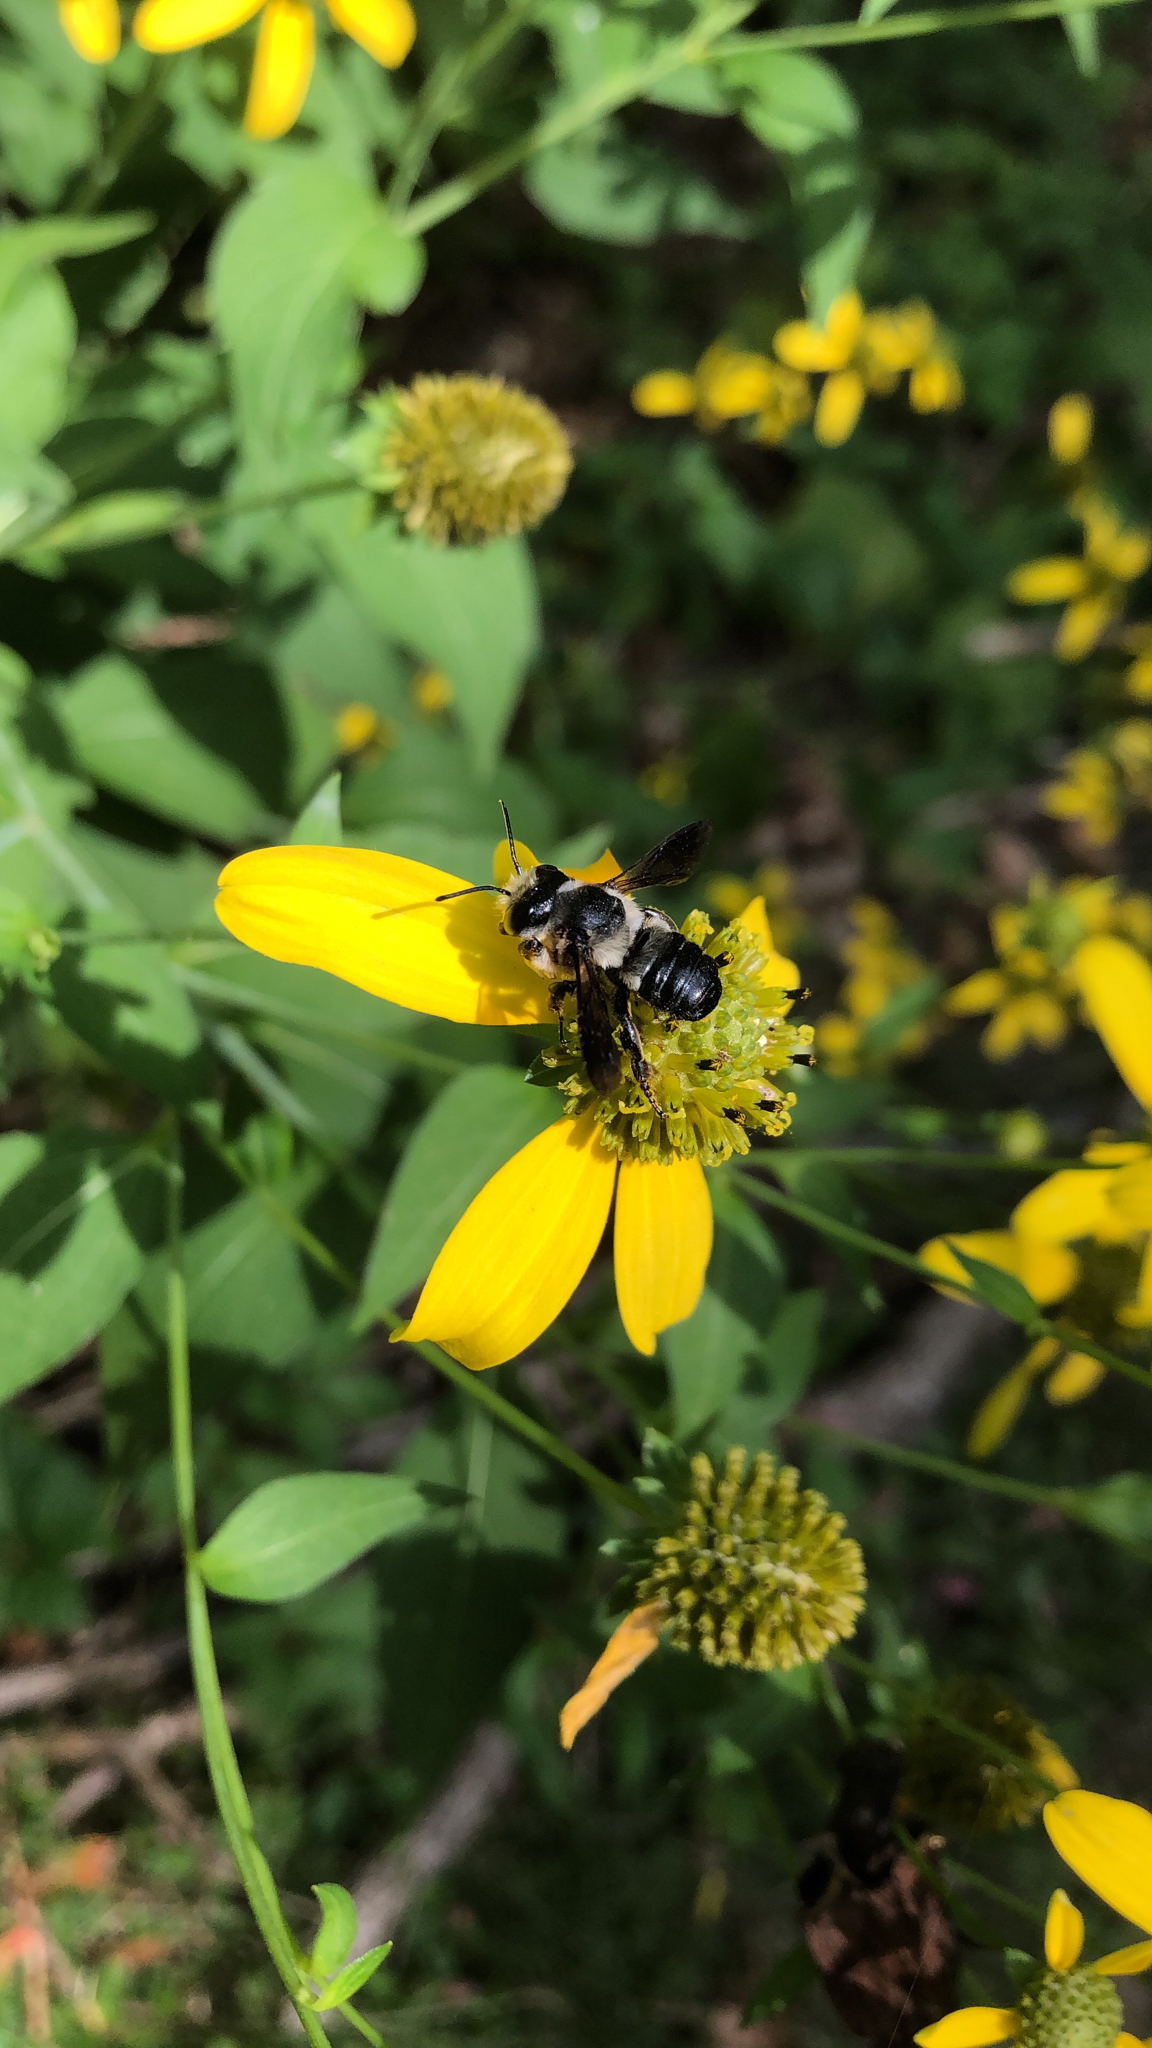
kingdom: Animalia
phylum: Arthropoda
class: Insecta
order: Hymenoptera
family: Megachilidae
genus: Megachile
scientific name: Megachile xylocopoides
